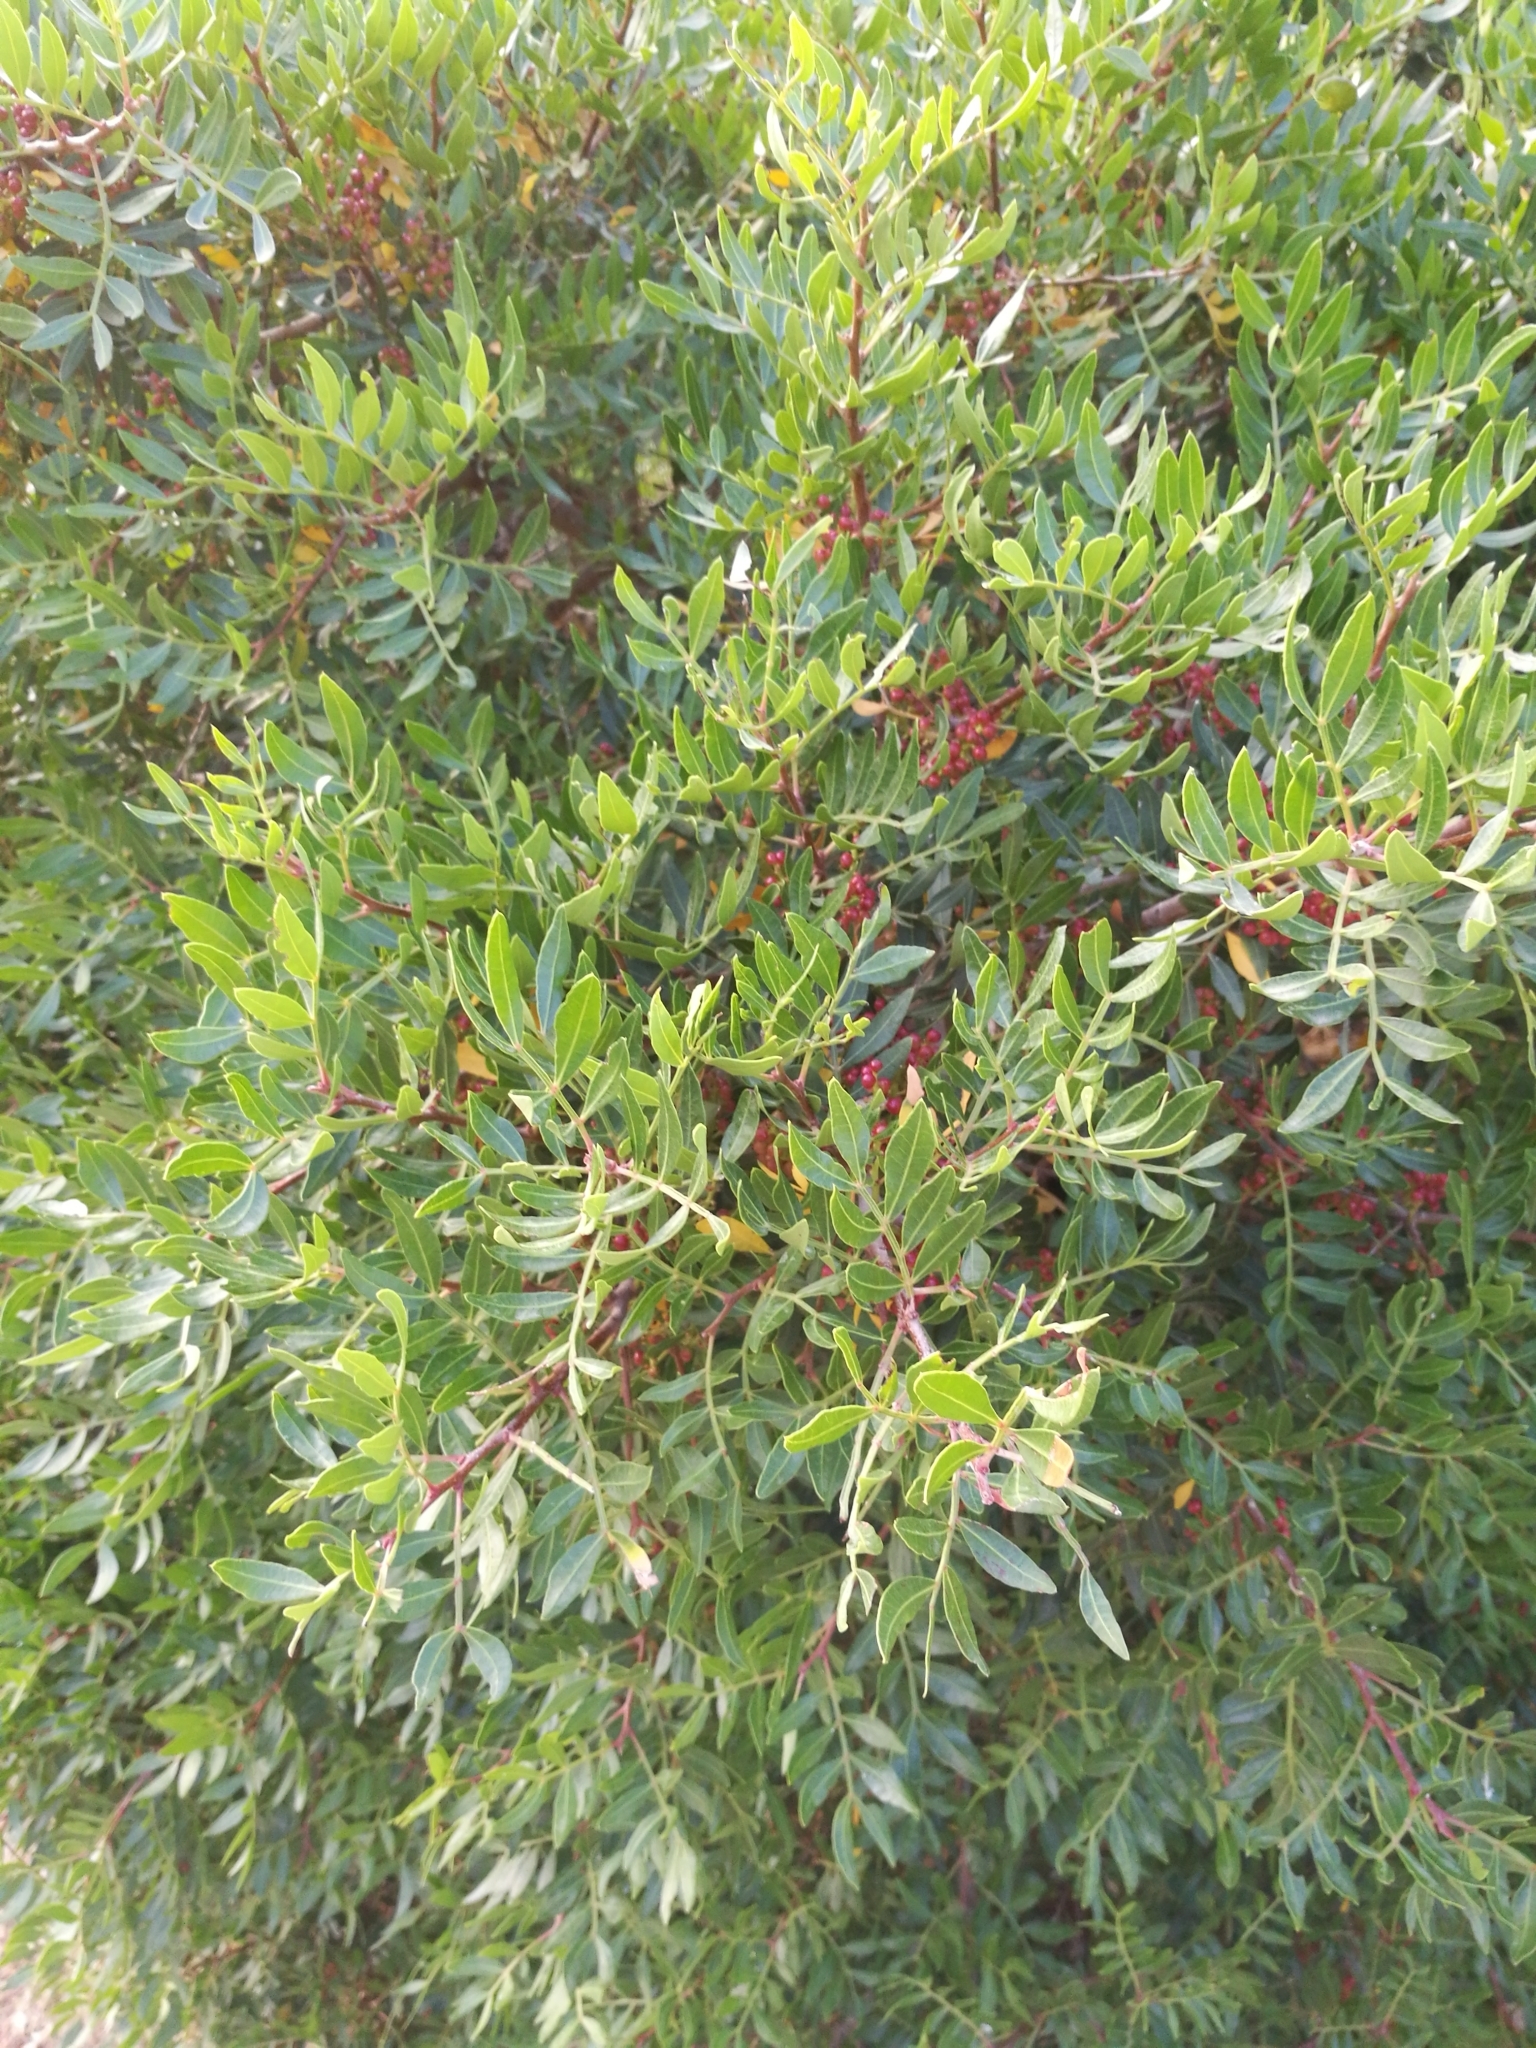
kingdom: Plantae
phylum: Tracheophyta
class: Magnoliopsida
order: Sapindales
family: Anacardiaceae
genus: Pistacia
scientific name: Pistacia lentiscus
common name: Lentisk
